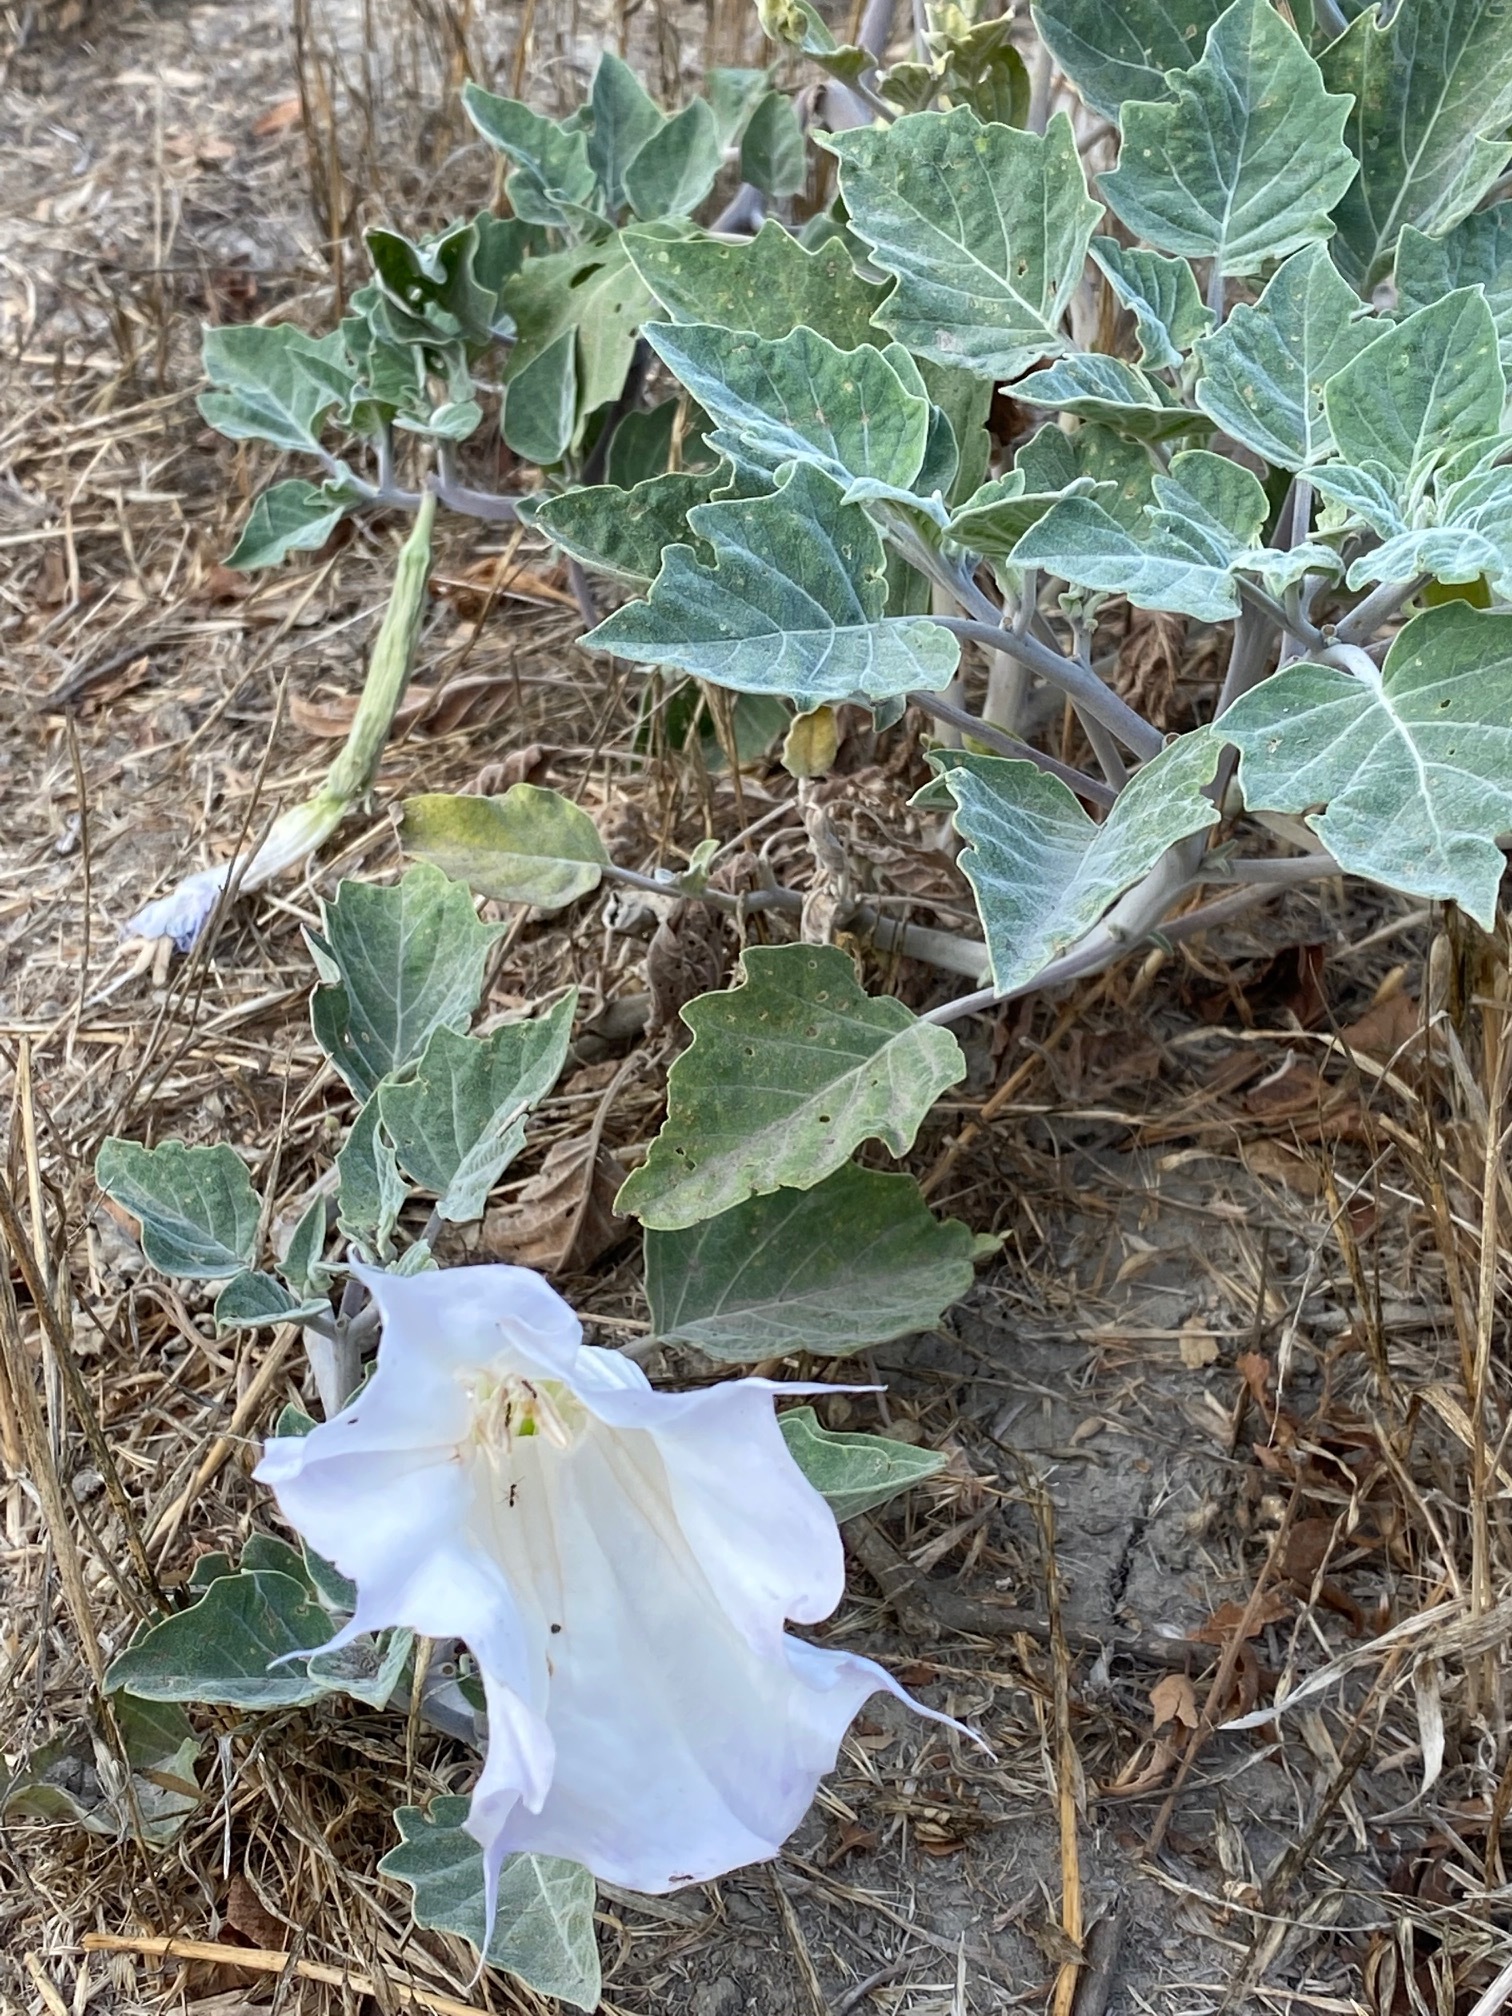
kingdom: Plantae
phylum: Tracheophyta
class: Magnoliopsida
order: Solanales
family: Solanaceae
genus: Datura
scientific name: Datura wrightii
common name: Sacred thorn-apple
